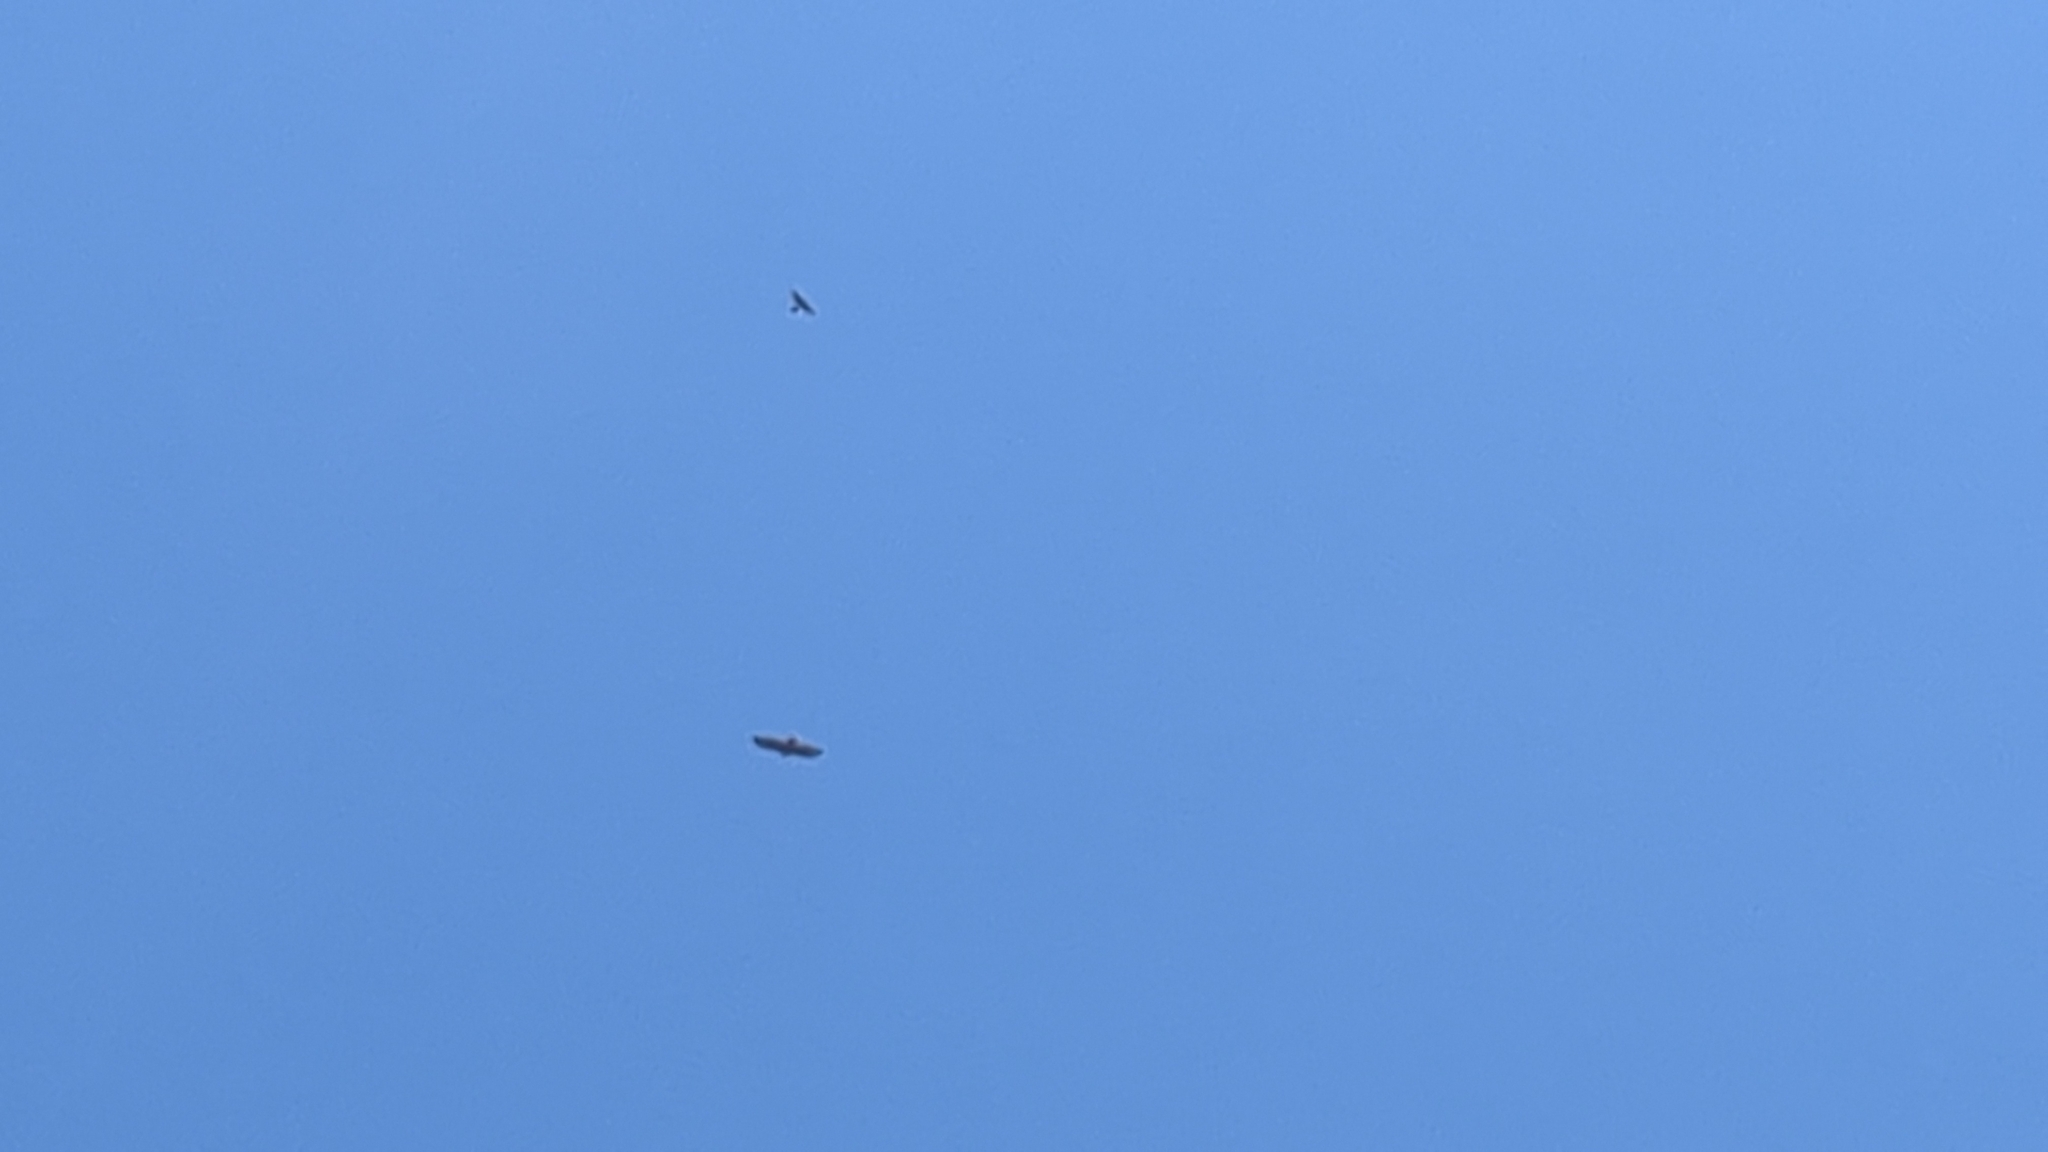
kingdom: Animalia
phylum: Chordata
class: Aves
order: Accipitriformes
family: Accipitridae
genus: Buteo
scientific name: Buteo jamaicensis
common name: Red-tailed hawk
